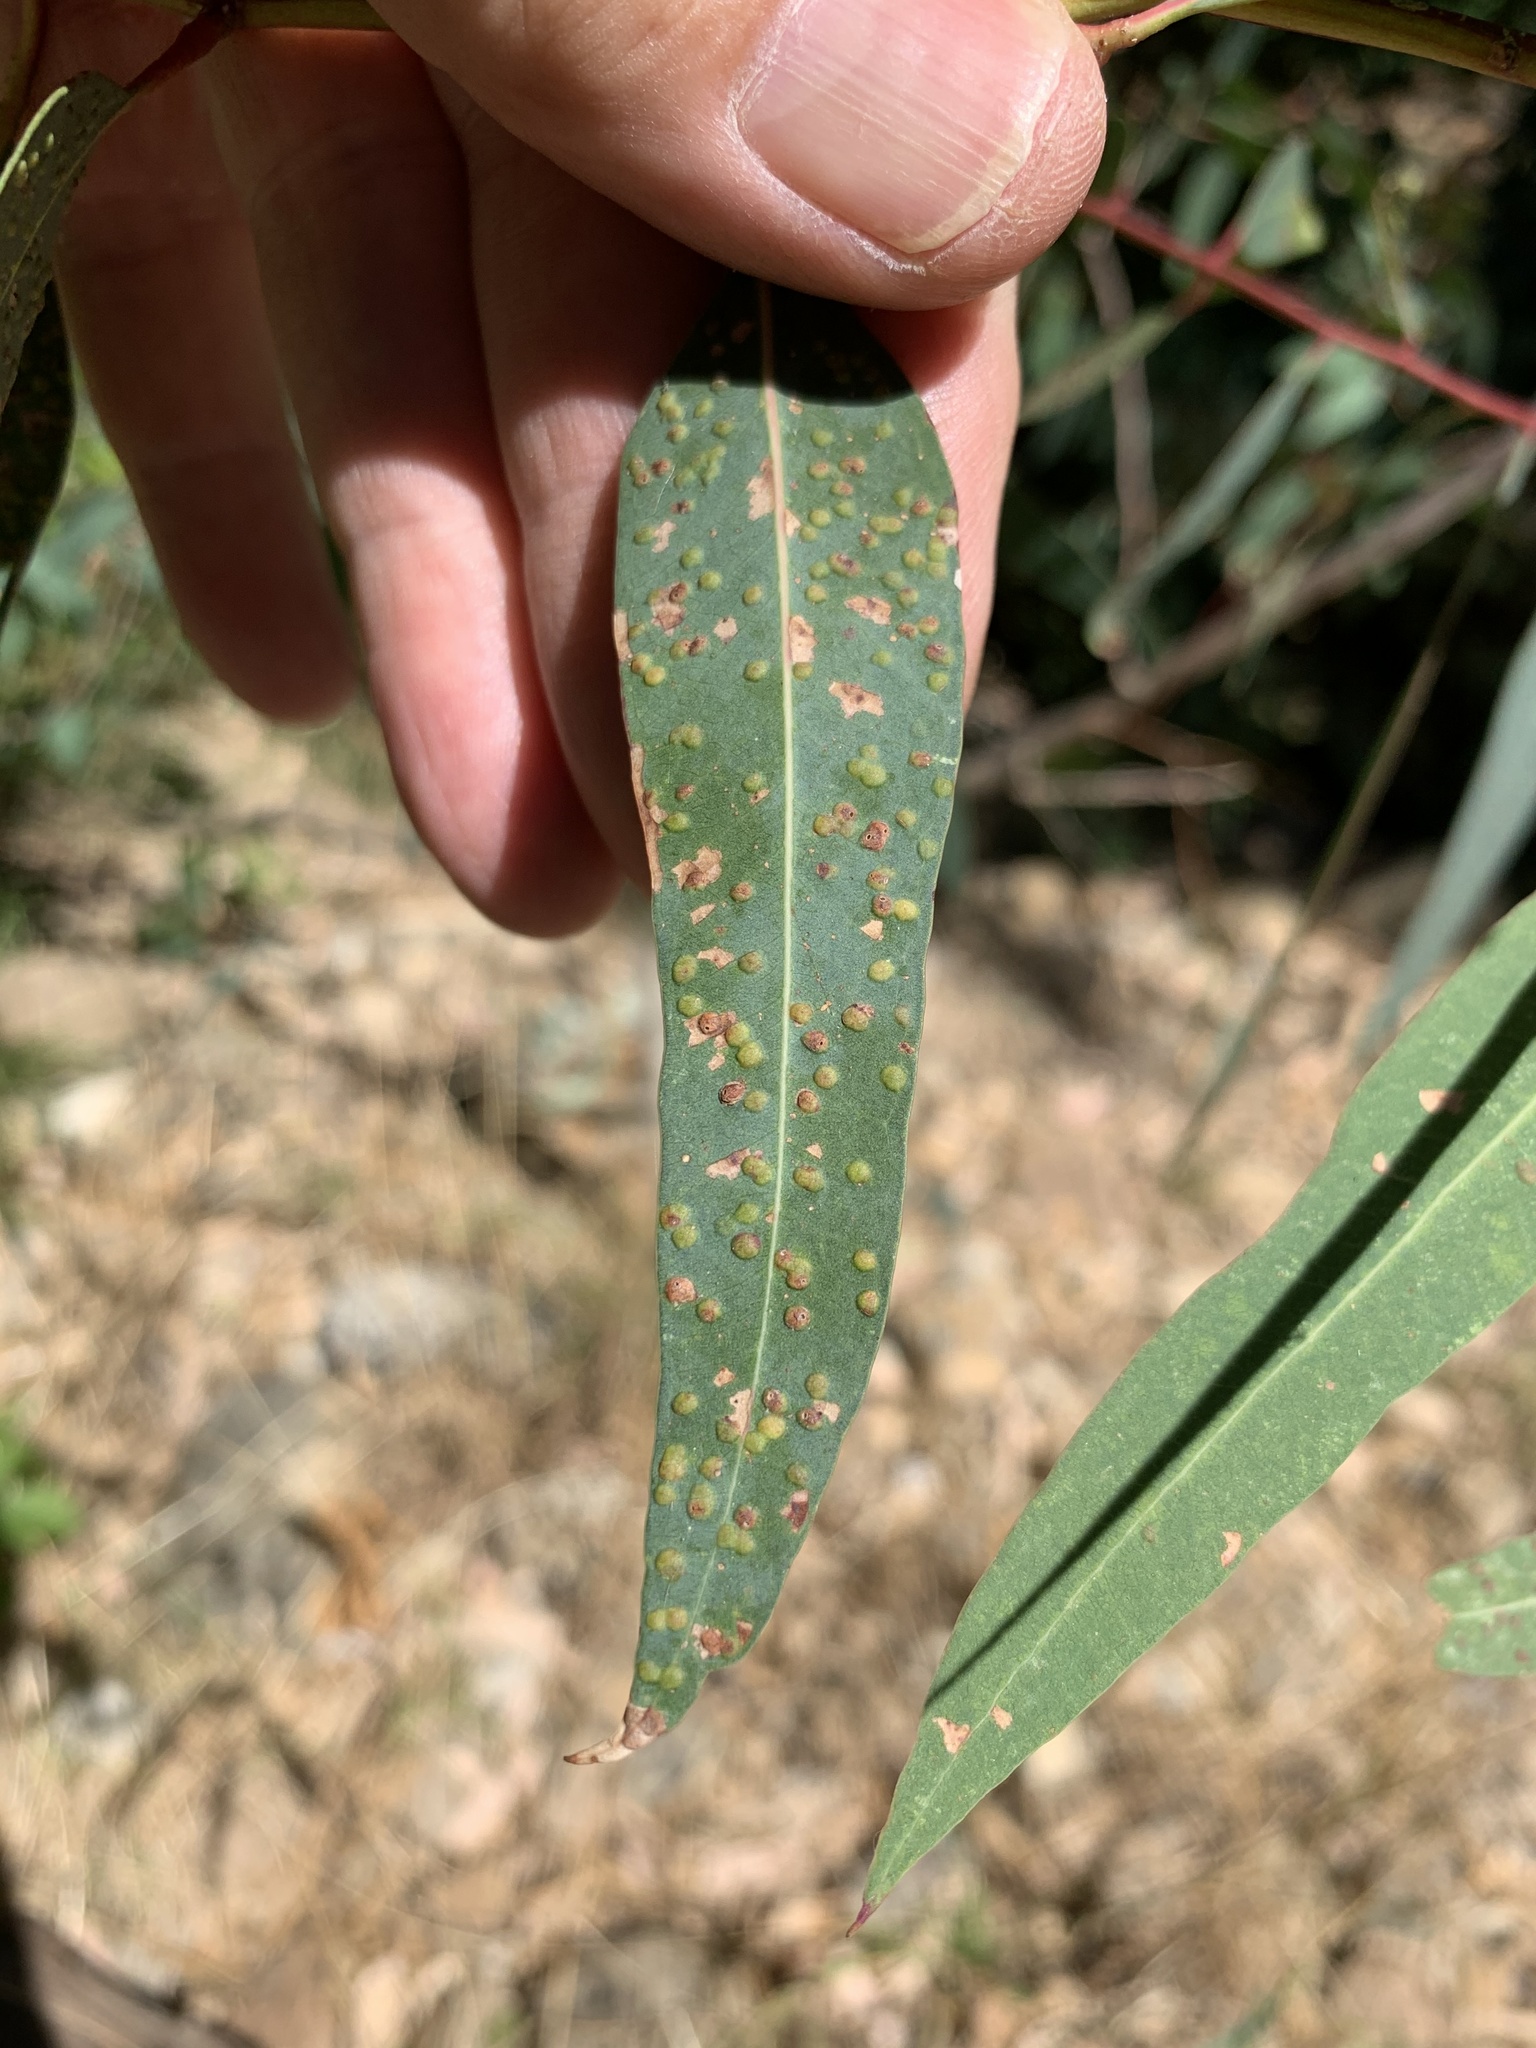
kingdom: Plantae
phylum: Tracheophyta
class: Magnoliopsida
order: Myrtales
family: Myrtaceae
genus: Eucalyptus
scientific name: Eucalyptus camaldulensis
